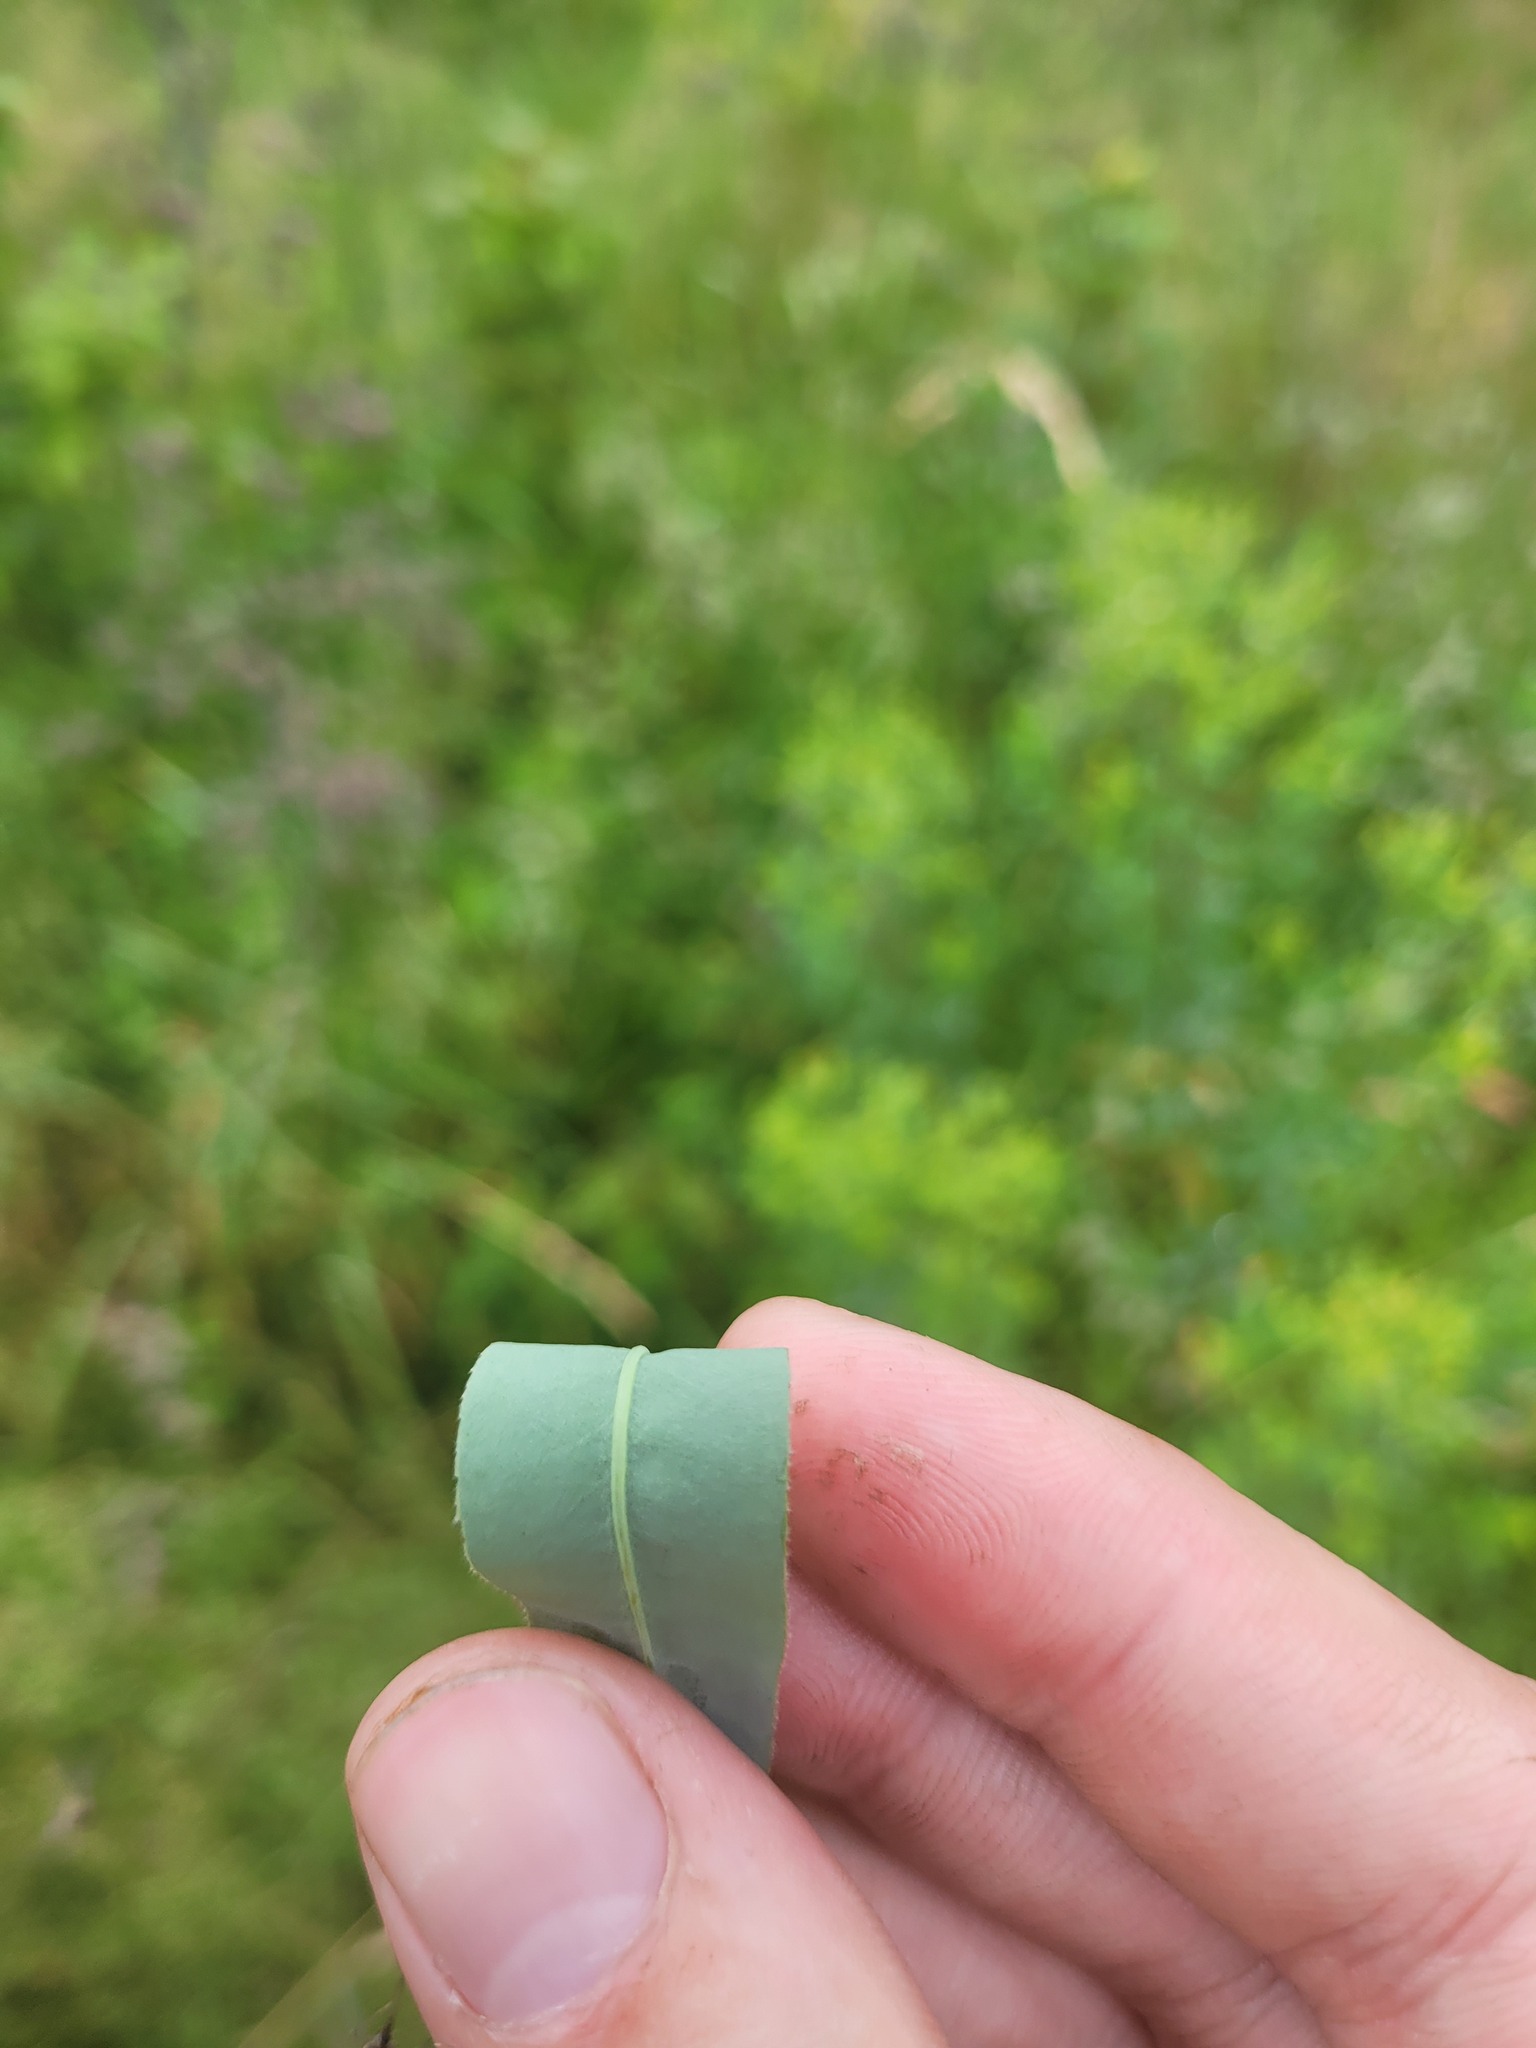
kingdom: Plantae
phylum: Tracheophyta
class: Magnoliopsida
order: Malpighiales
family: Euphorbiaceae
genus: Euphorbia
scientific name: Euphorbia semivillosa
